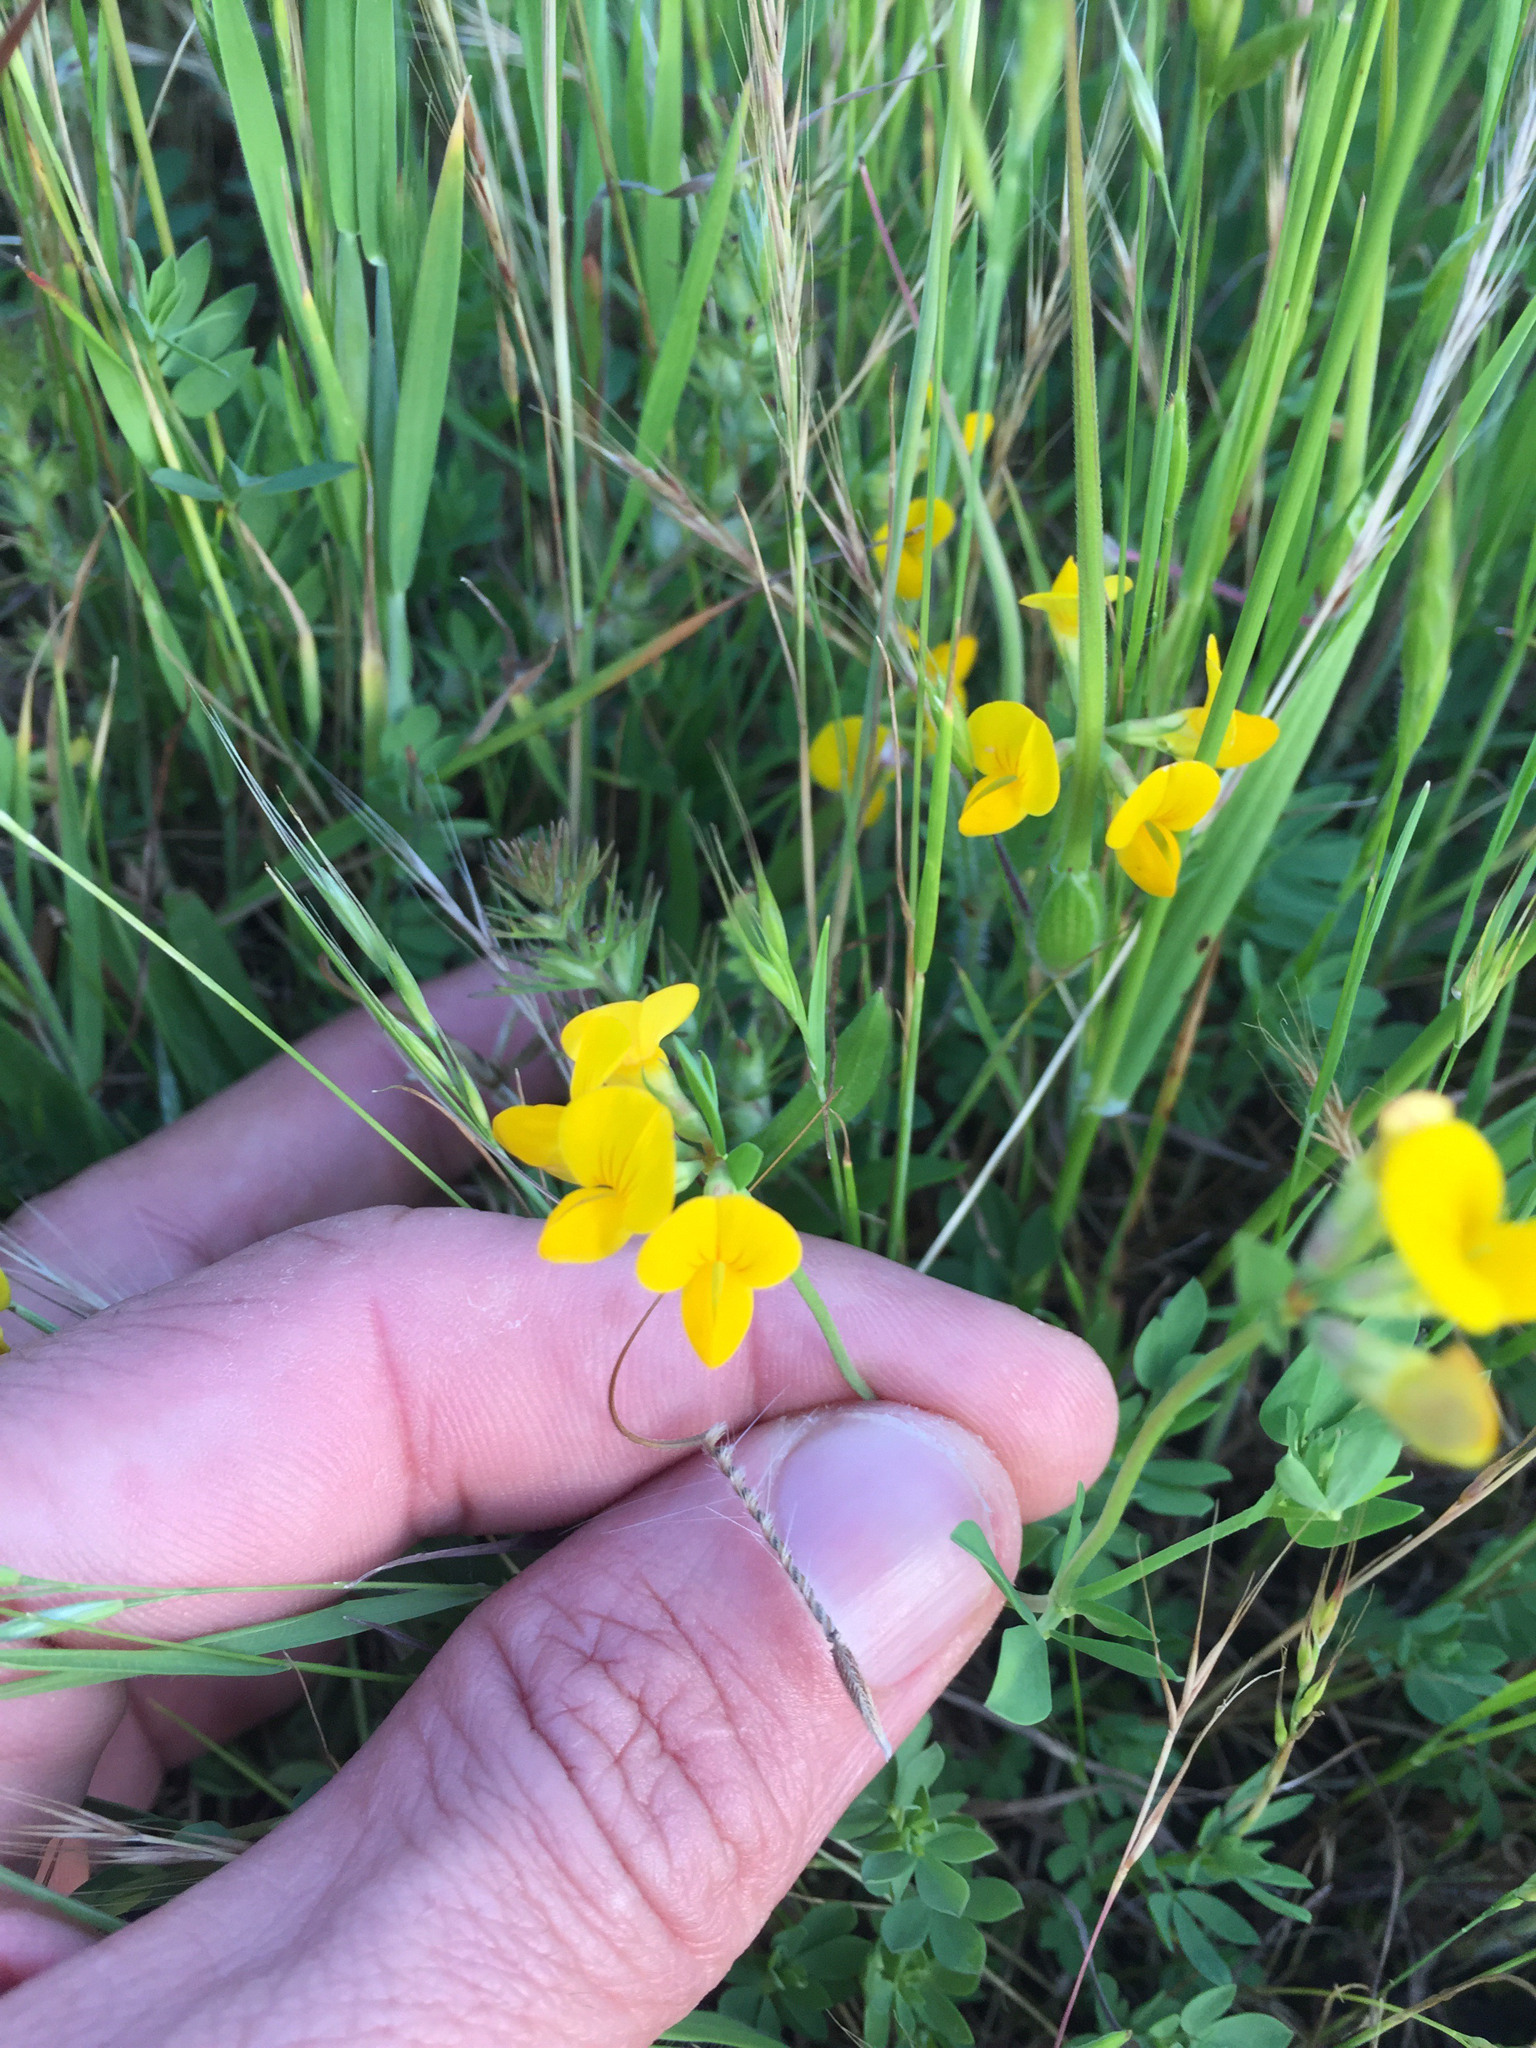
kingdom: Plantae
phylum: Tracheophyta
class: Magnoliopsida
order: Fabales
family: Fabaceae
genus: Lotus
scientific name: Lotus corniculatus
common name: Common bird's-foot-trefoil
